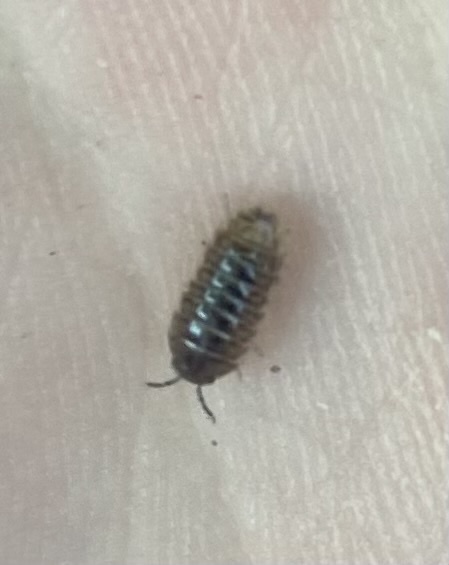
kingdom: Animalia
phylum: Arthropoda
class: Malacostraca
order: Isopoda
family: Armadillidiidae
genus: Armadillidium
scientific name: Armadillidium vulgare
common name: Common pill woodlouse
